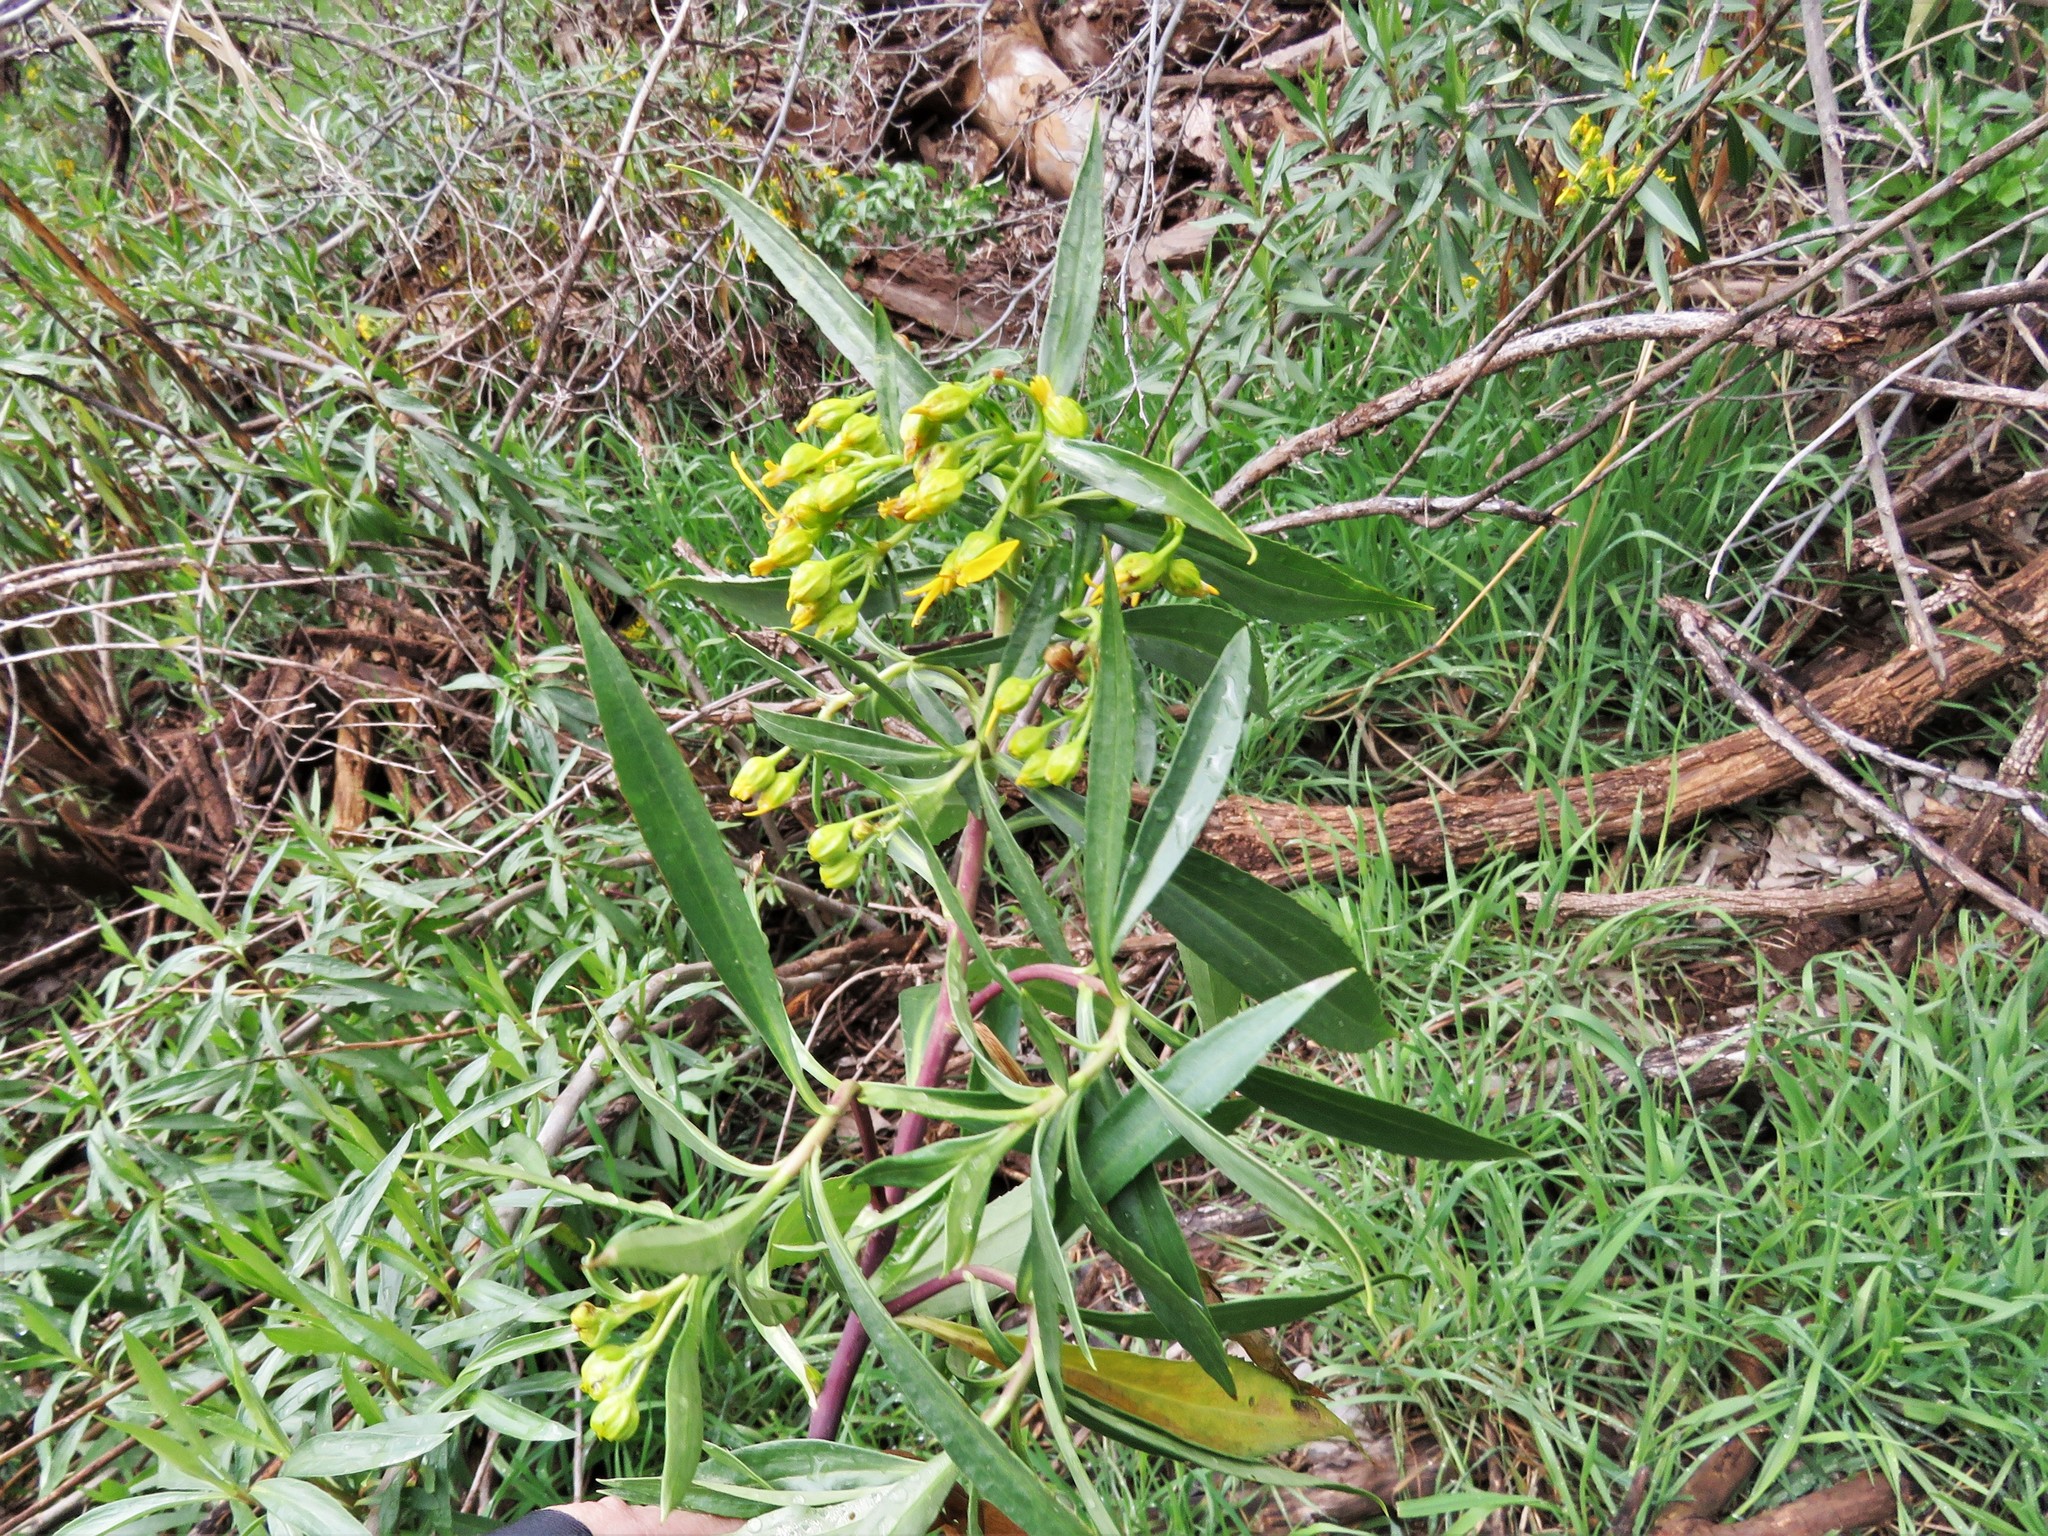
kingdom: Plantae
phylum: Tracheophyta
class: Magnoliopsida
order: Asterales
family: Asteraceae
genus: Barkleyanthus
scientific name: Barkleyanthus salicifolius
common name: Willow ragwort
